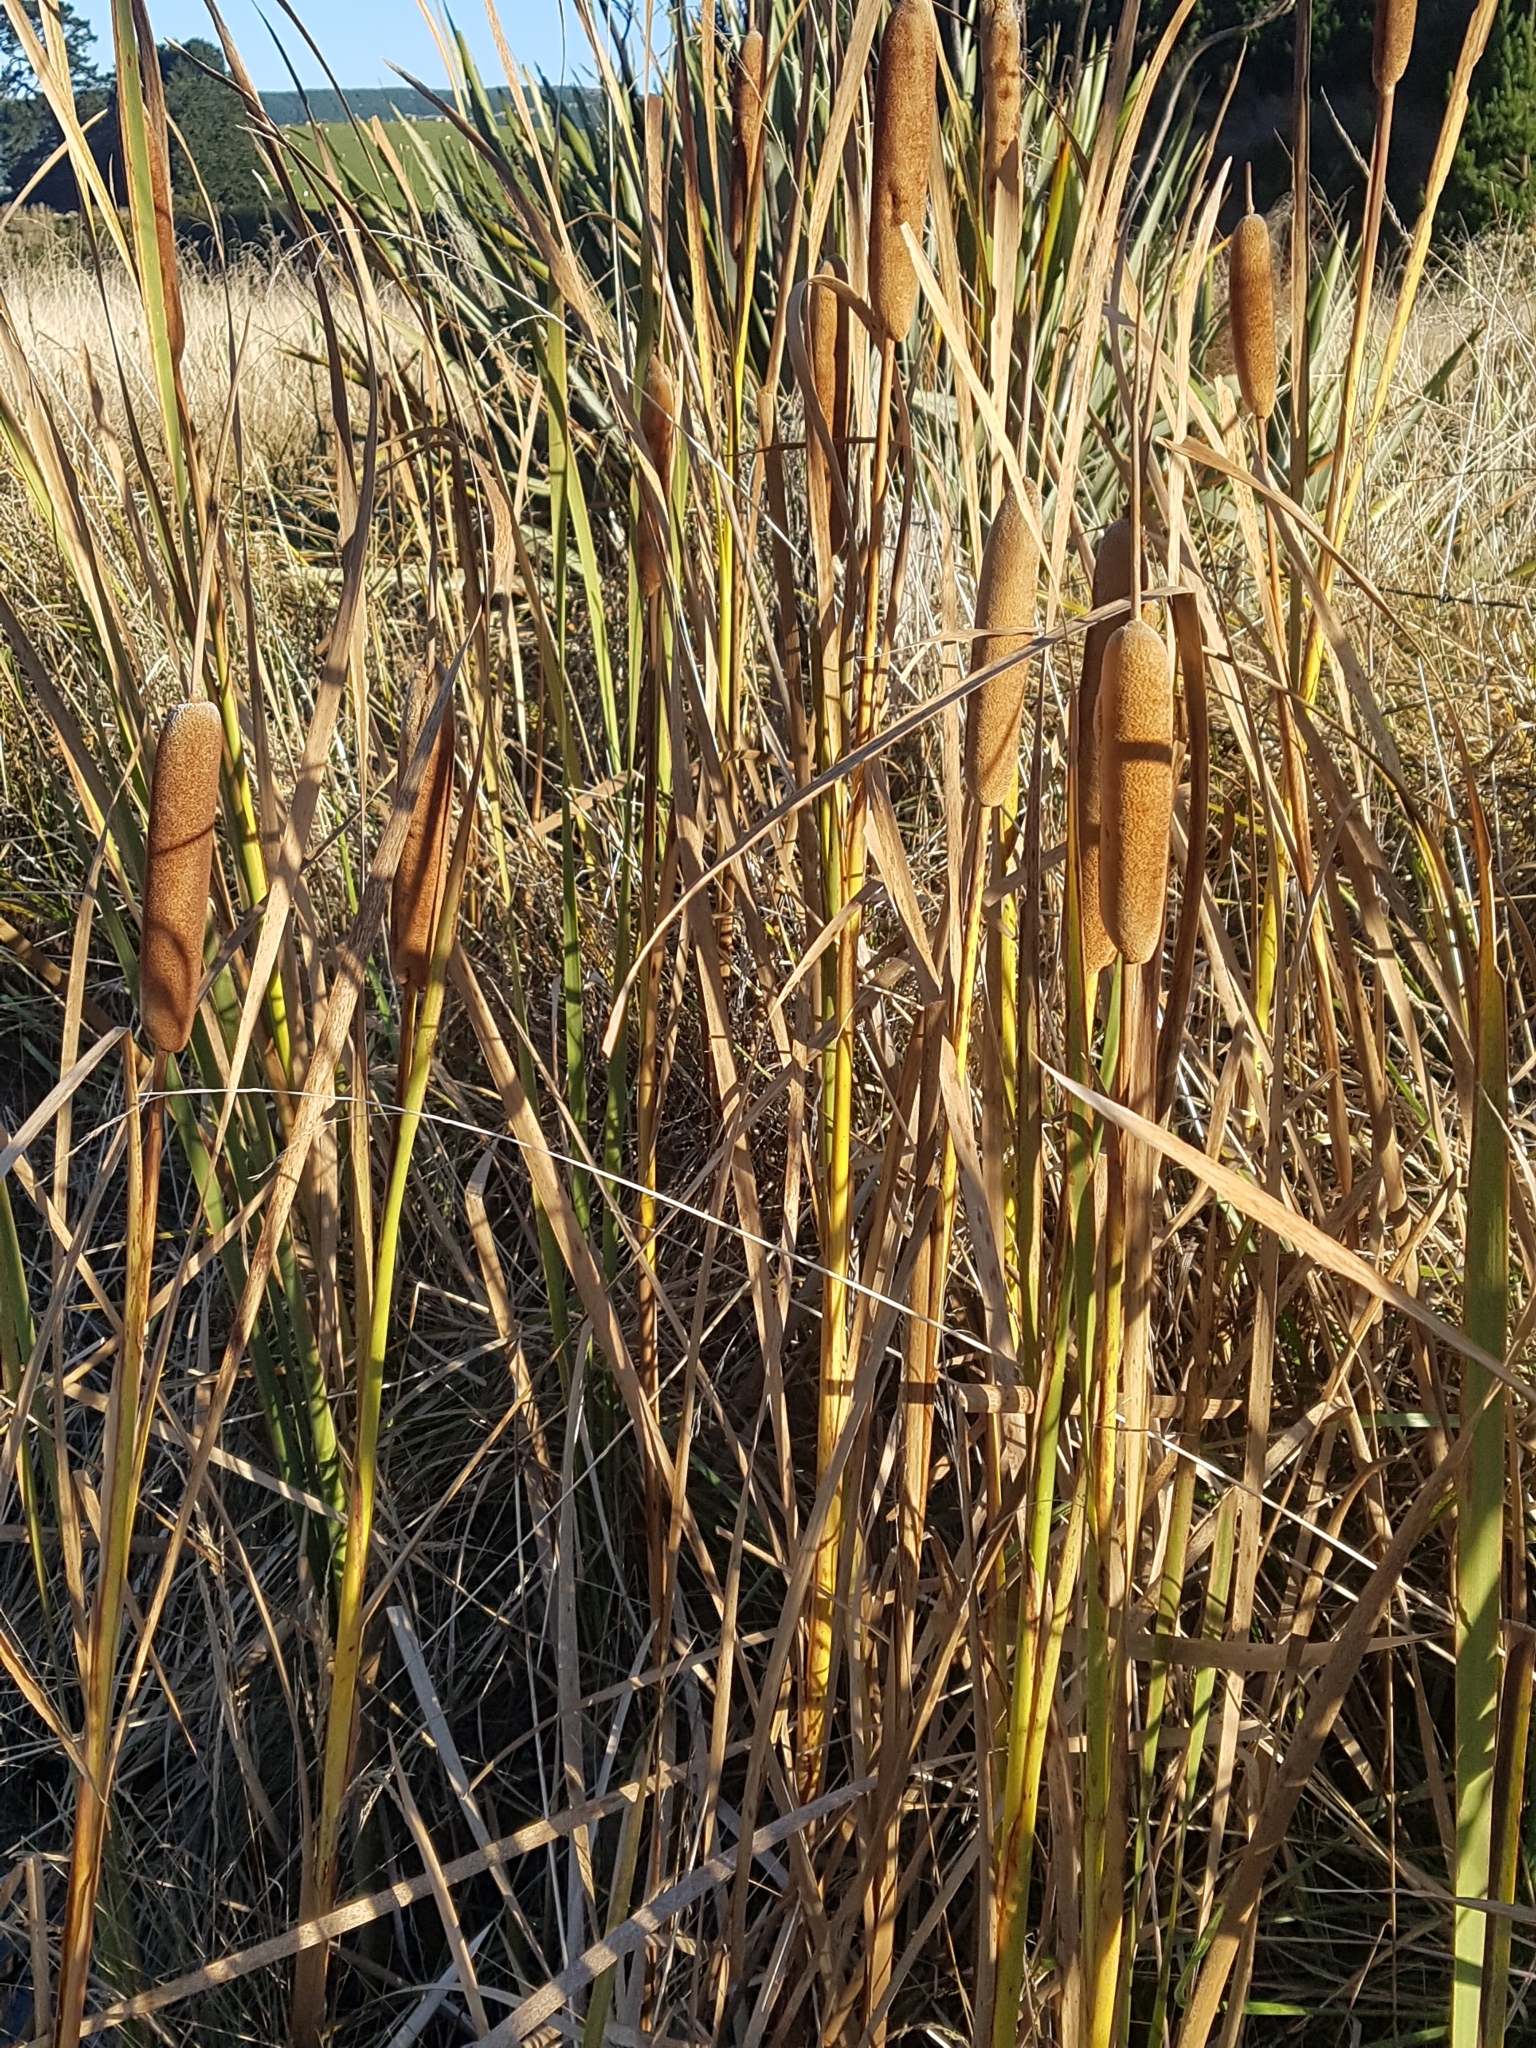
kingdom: Plantae
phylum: Tracheophyta
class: Liliopsida
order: Poales
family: Typhaceae
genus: Typha
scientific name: Typha orientalis
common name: Bullrush
